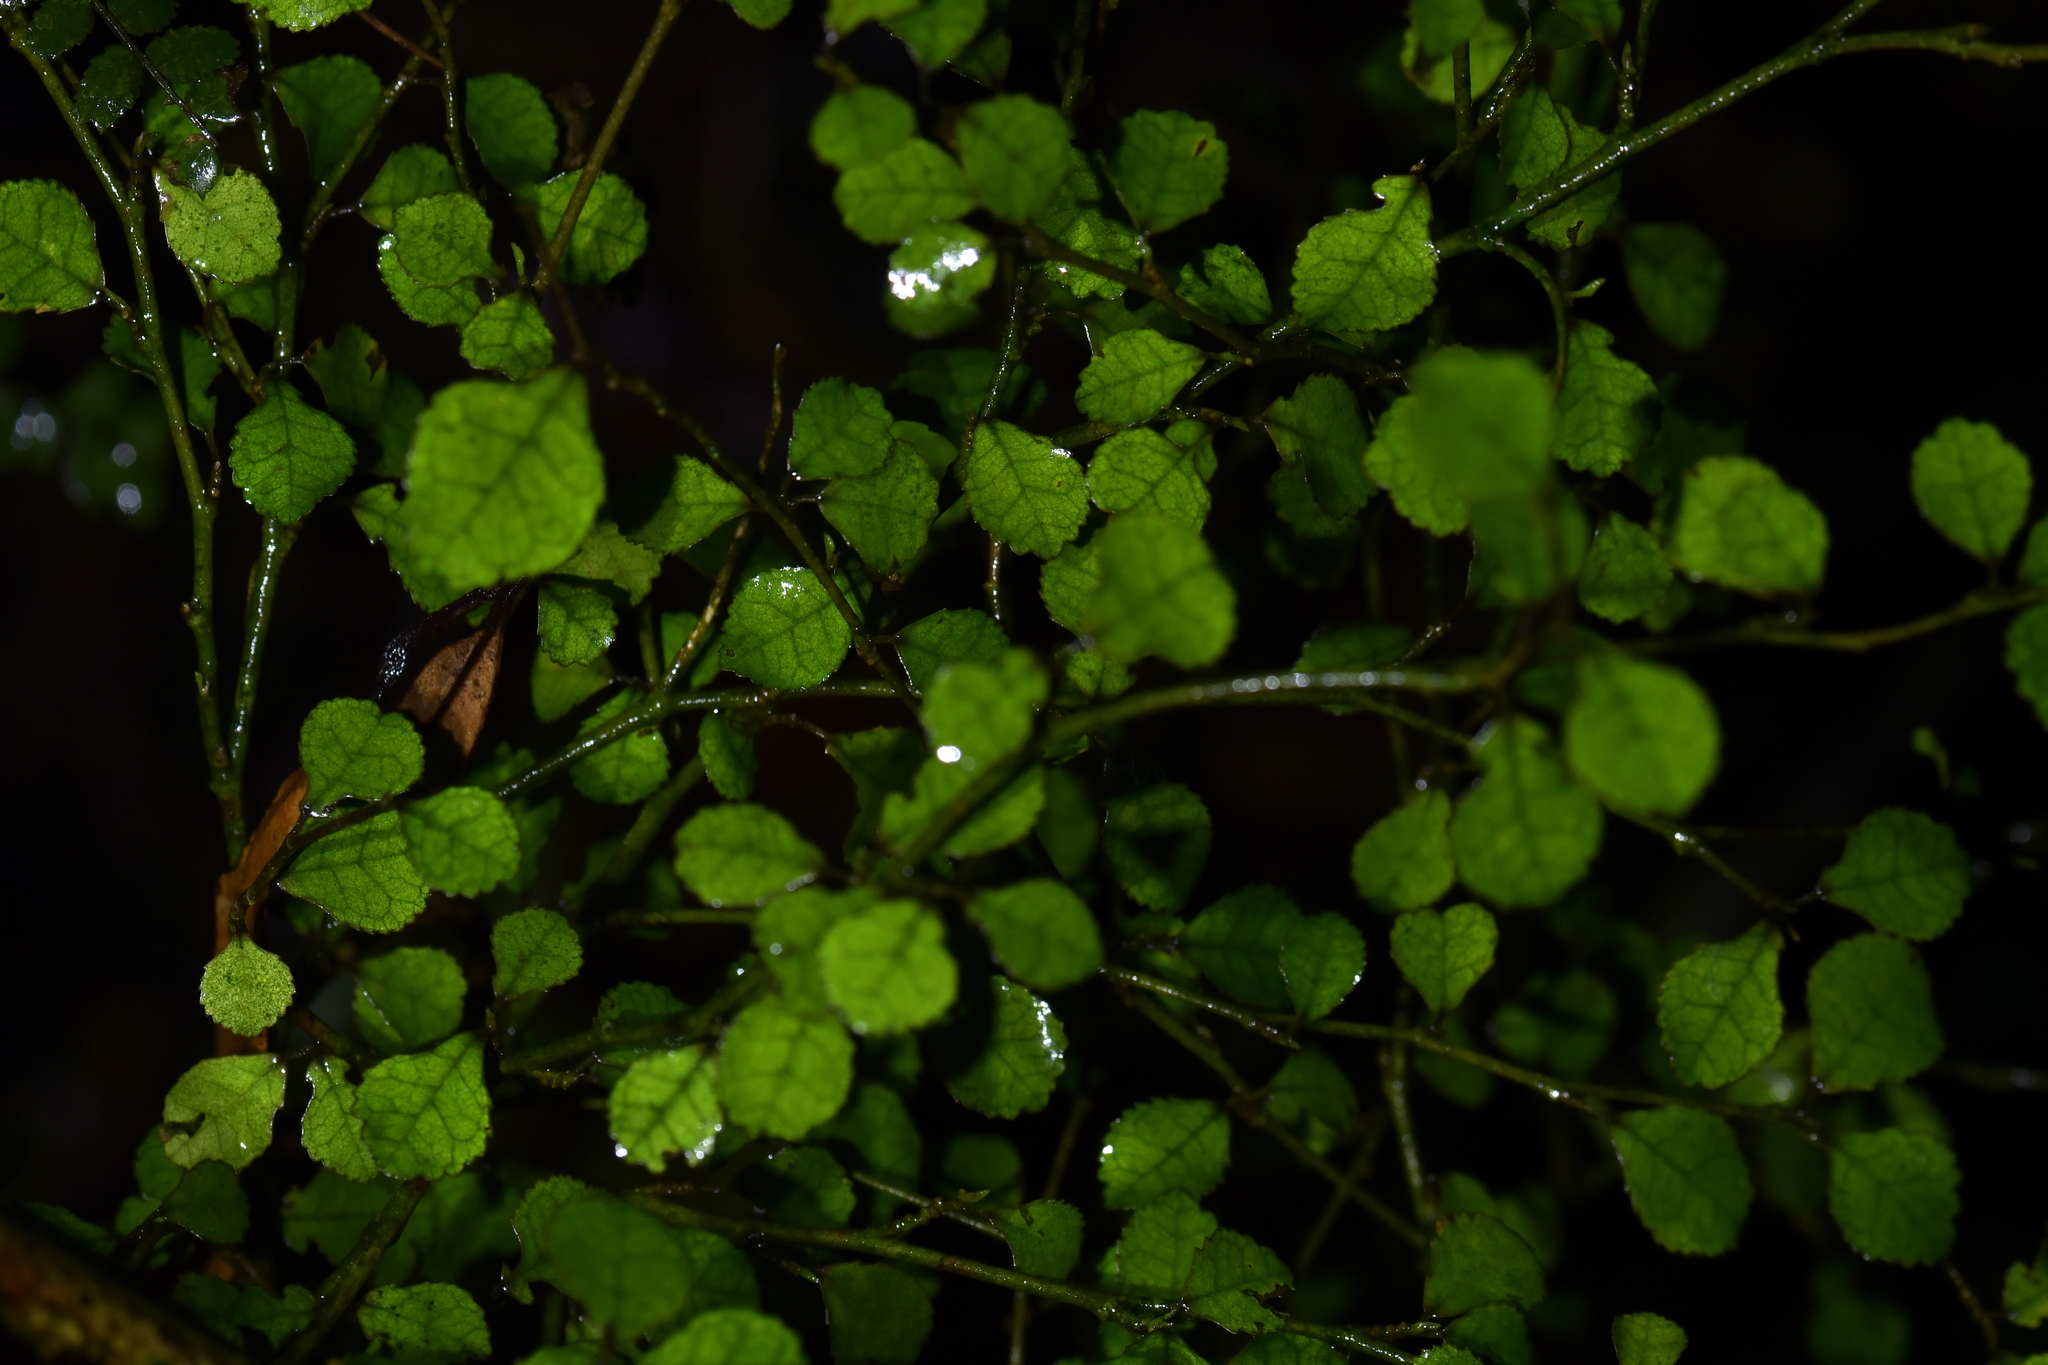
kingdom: Plantae
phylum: Tracheophyta
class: Magnoliopsida
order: Rosales
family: Moraceae
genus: Paratrophis
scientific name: Paratrophis microphylla
